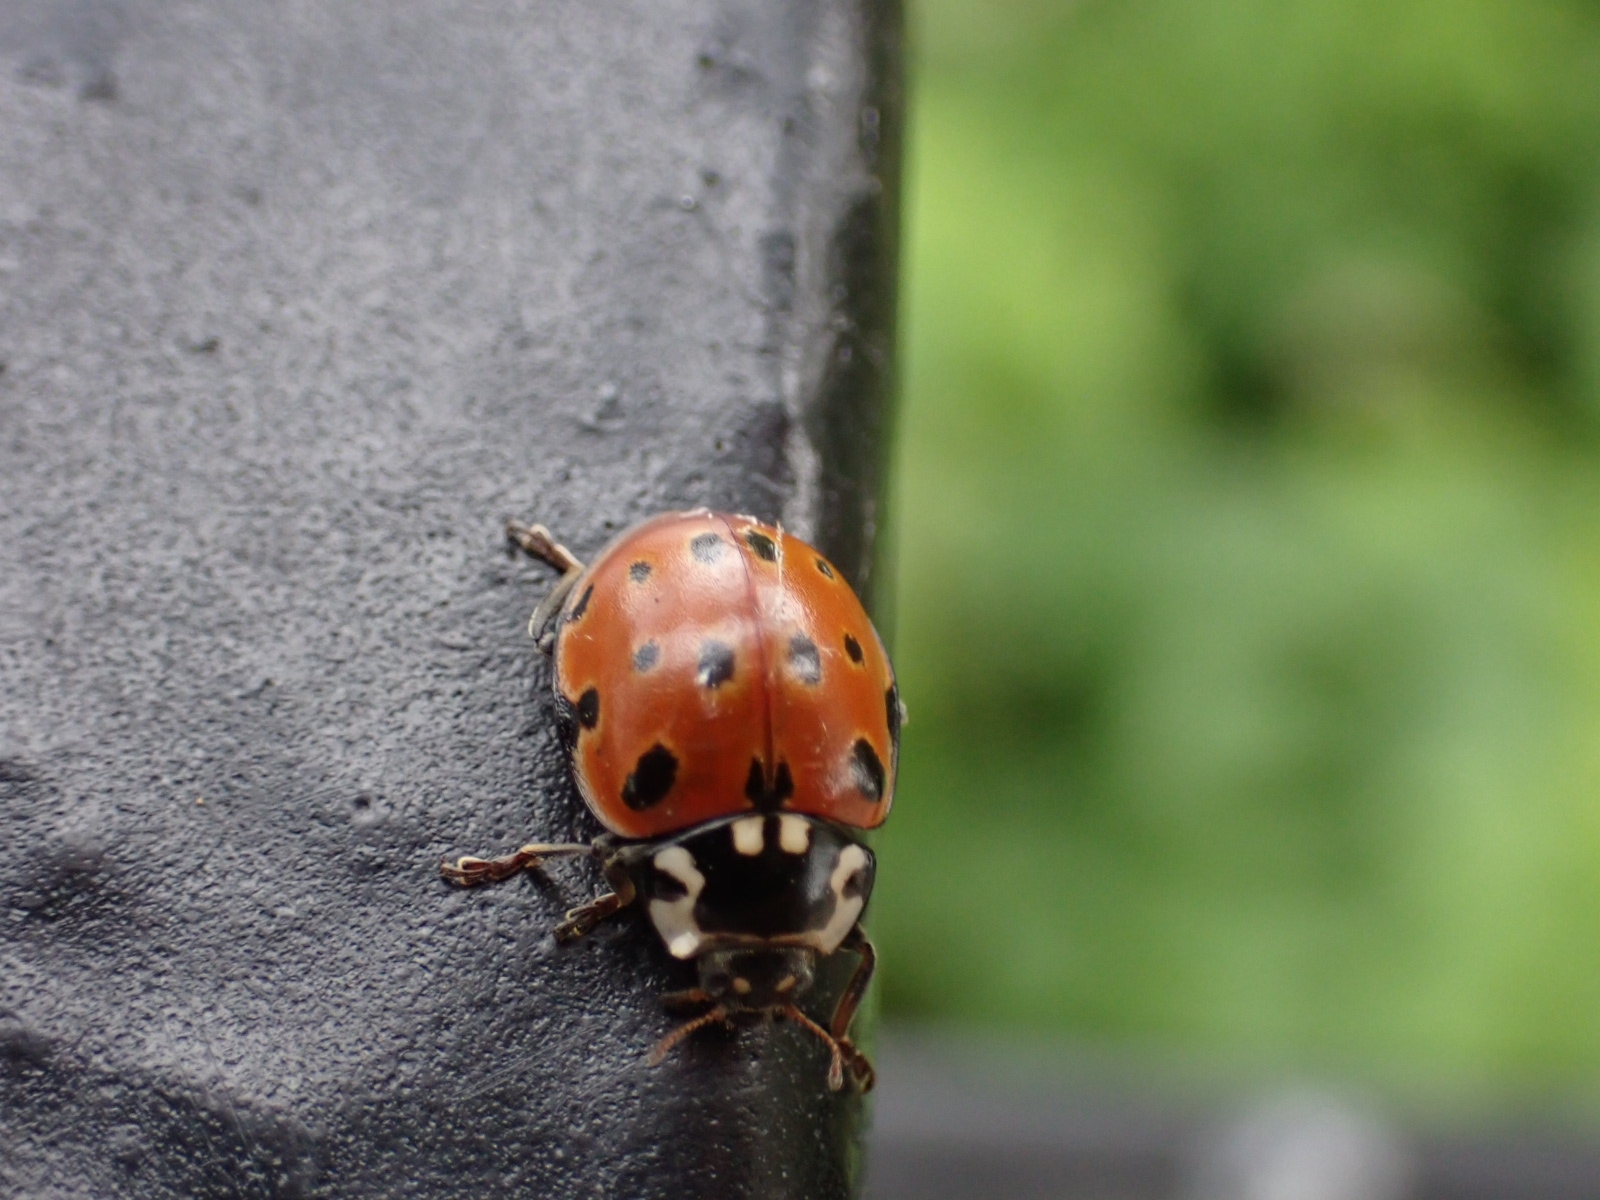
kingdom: Animalia
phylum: Arthropoda
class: Insecta
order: Coleoptera
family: Coccinellidae
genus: Anatis
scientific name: Anatis ocellata
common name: Eyed ladybird
